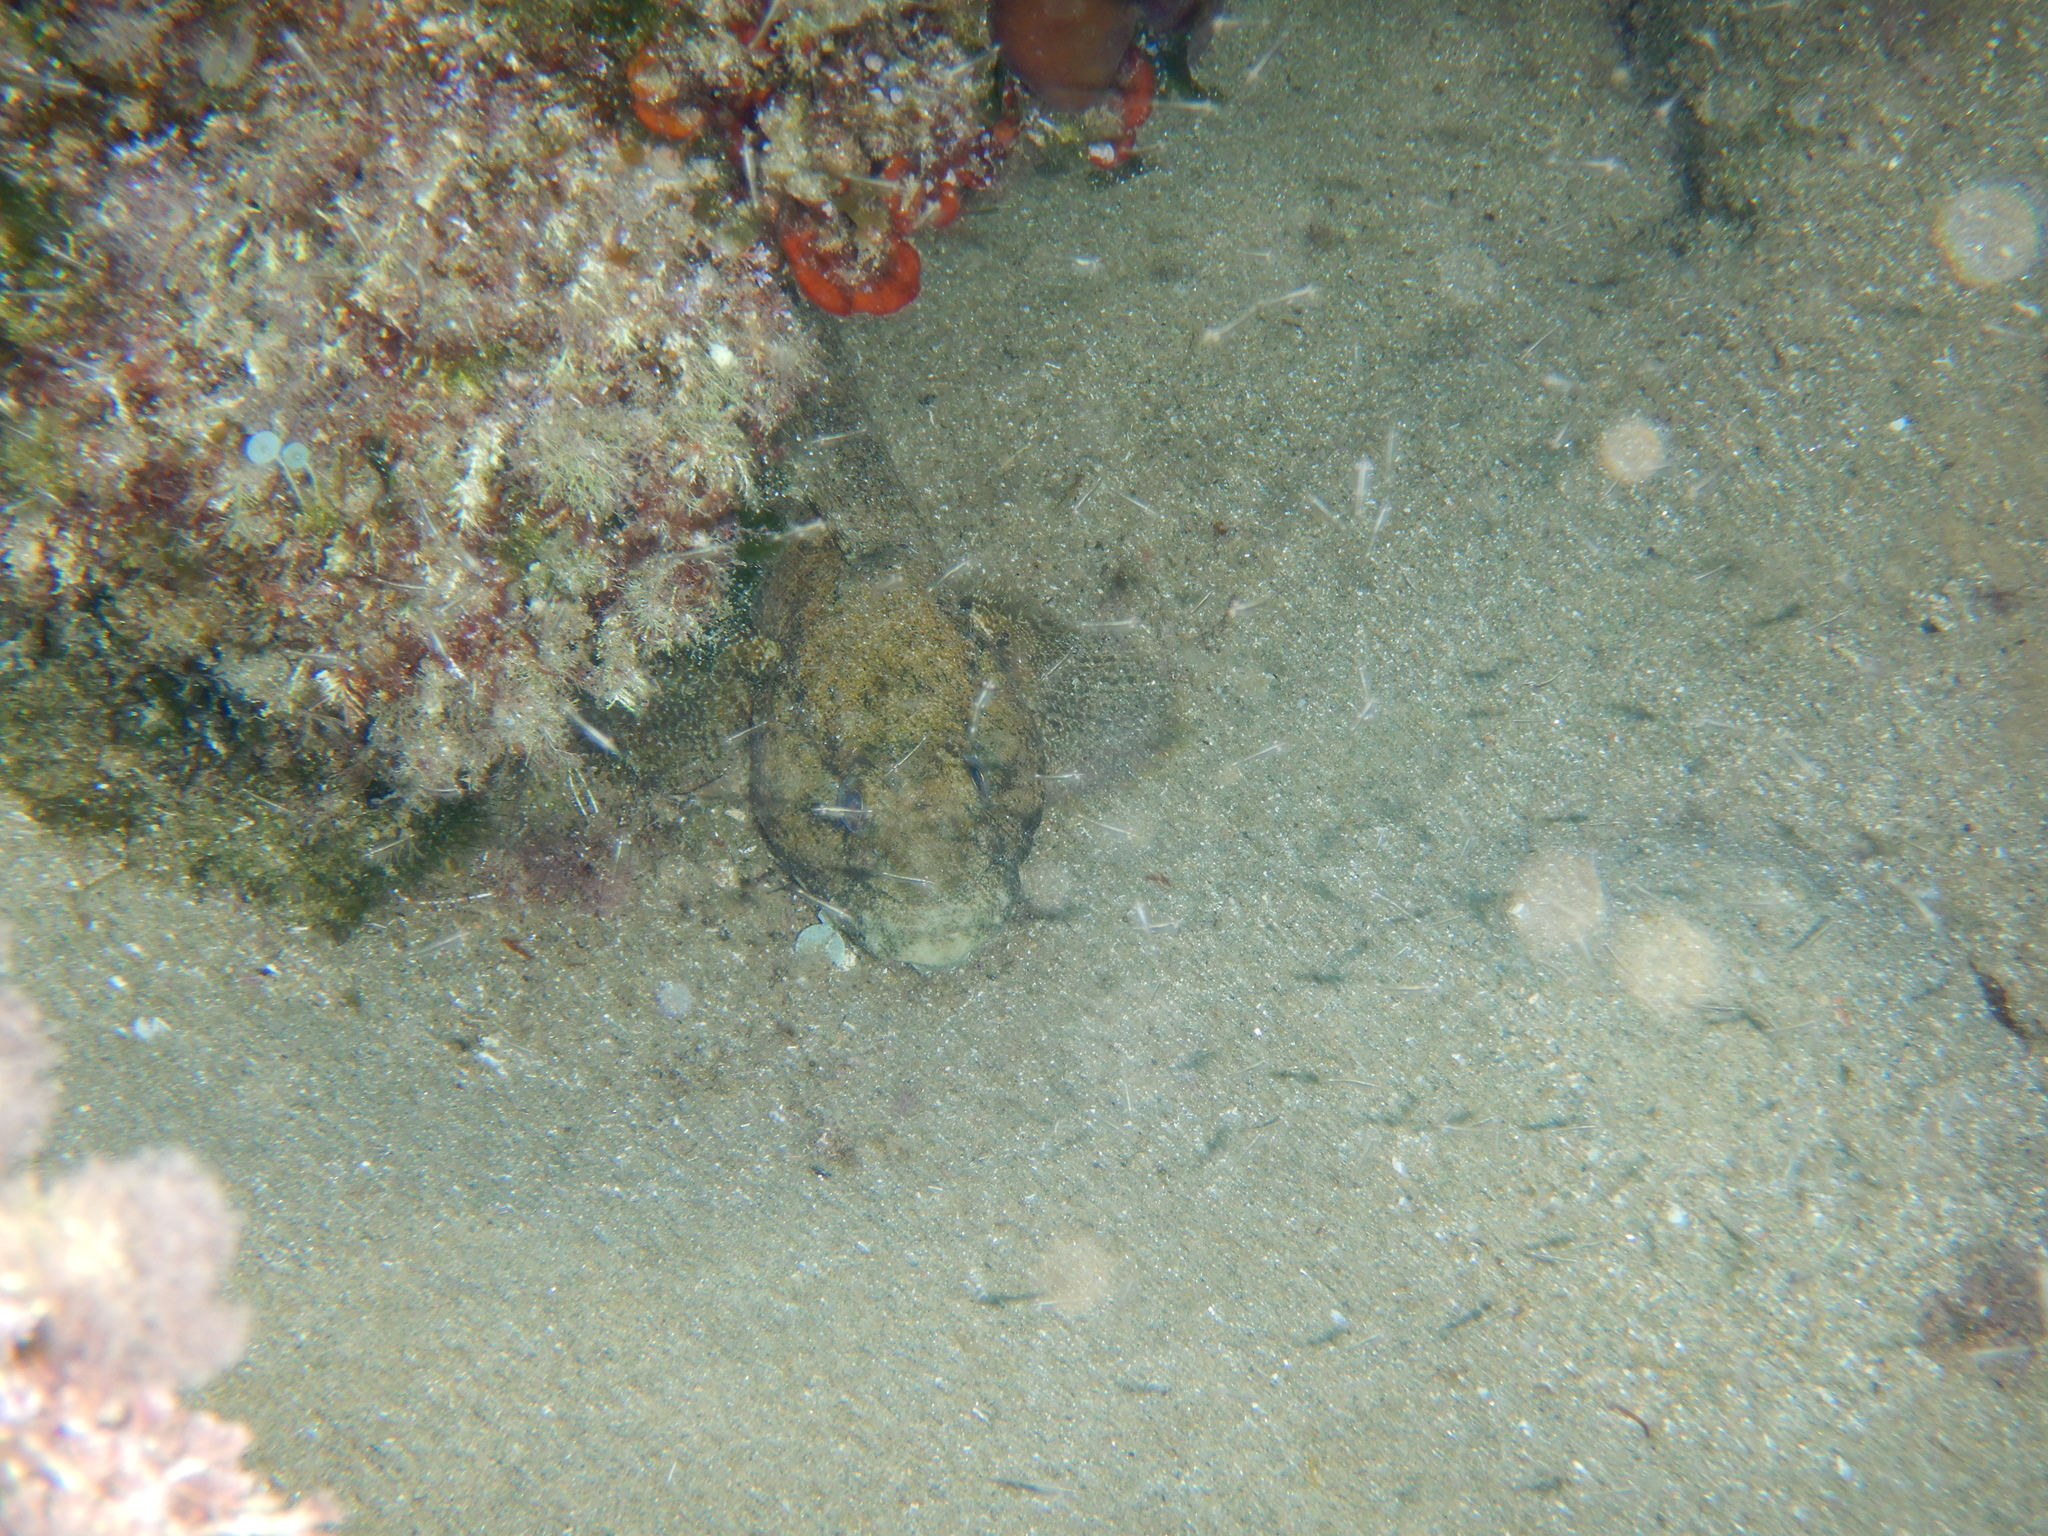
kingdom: Animalia
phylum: Chordata
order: Perciformes
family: Gobiidae
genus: Gobius
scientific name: Gobius cobitis
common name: Giant goby
